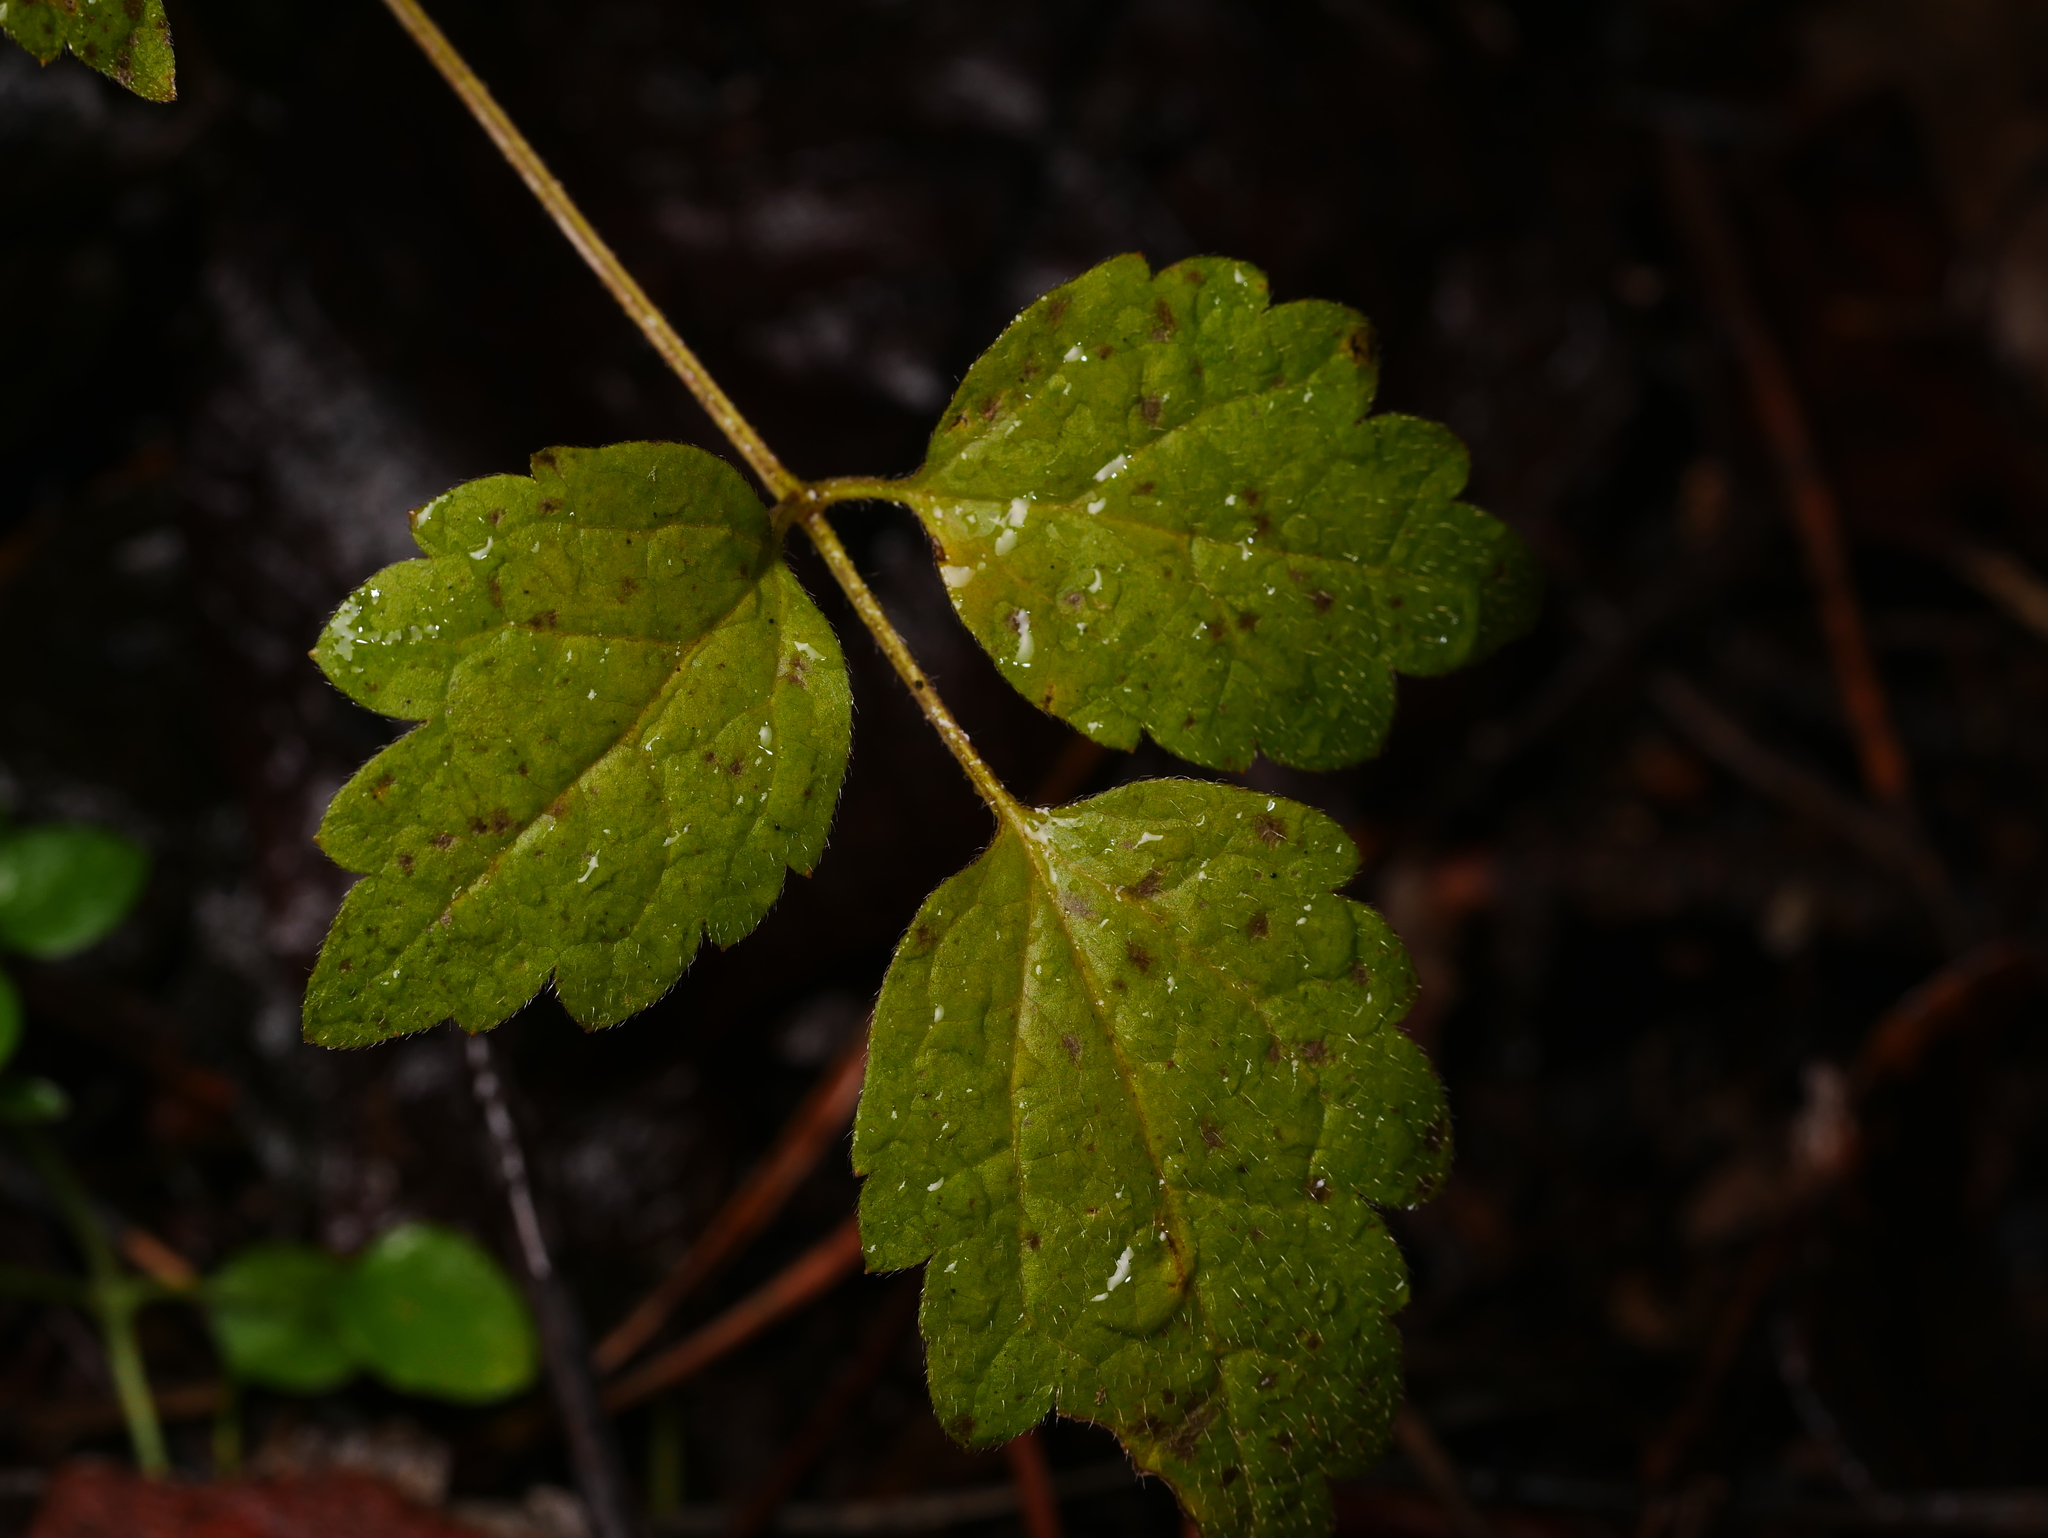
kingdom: Plantae
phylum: Tracheophyta
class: Magnoliopsida
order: Ranunculales
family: Ranunculaceae
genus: Clematis
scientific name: Clematis vitalba
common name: Evergreen clematis
